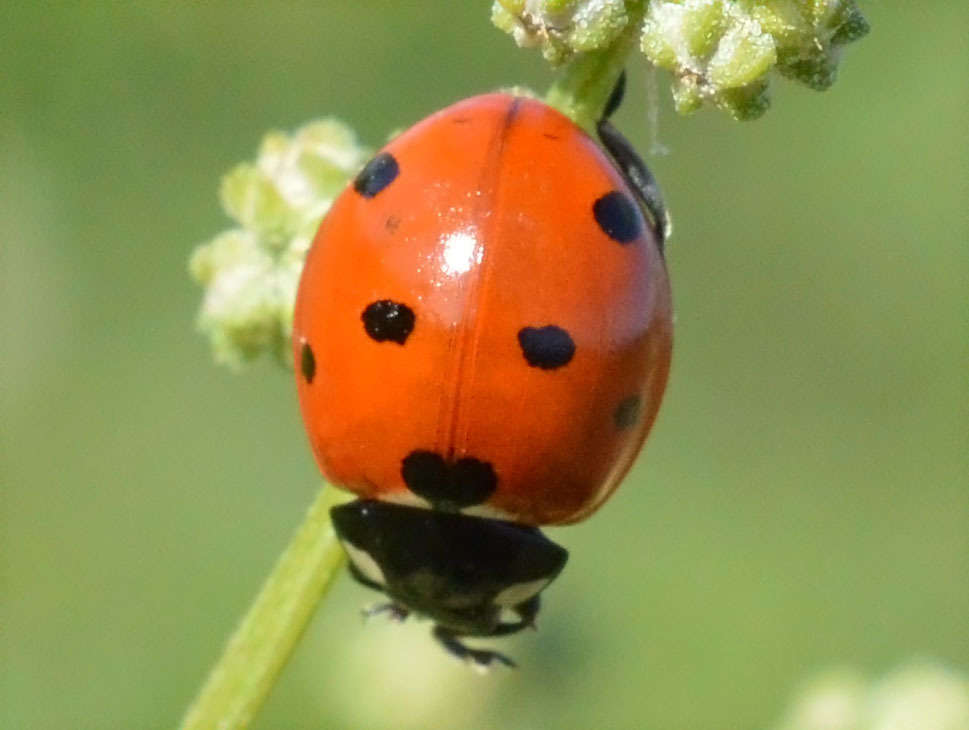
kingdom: Animalia
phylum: Arthropoda
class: Insecta
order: Coleoptera
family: Coccinellidae
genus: Coccinella
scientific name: Coccinella septempunctata
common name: Sevenspotted lady beetle
